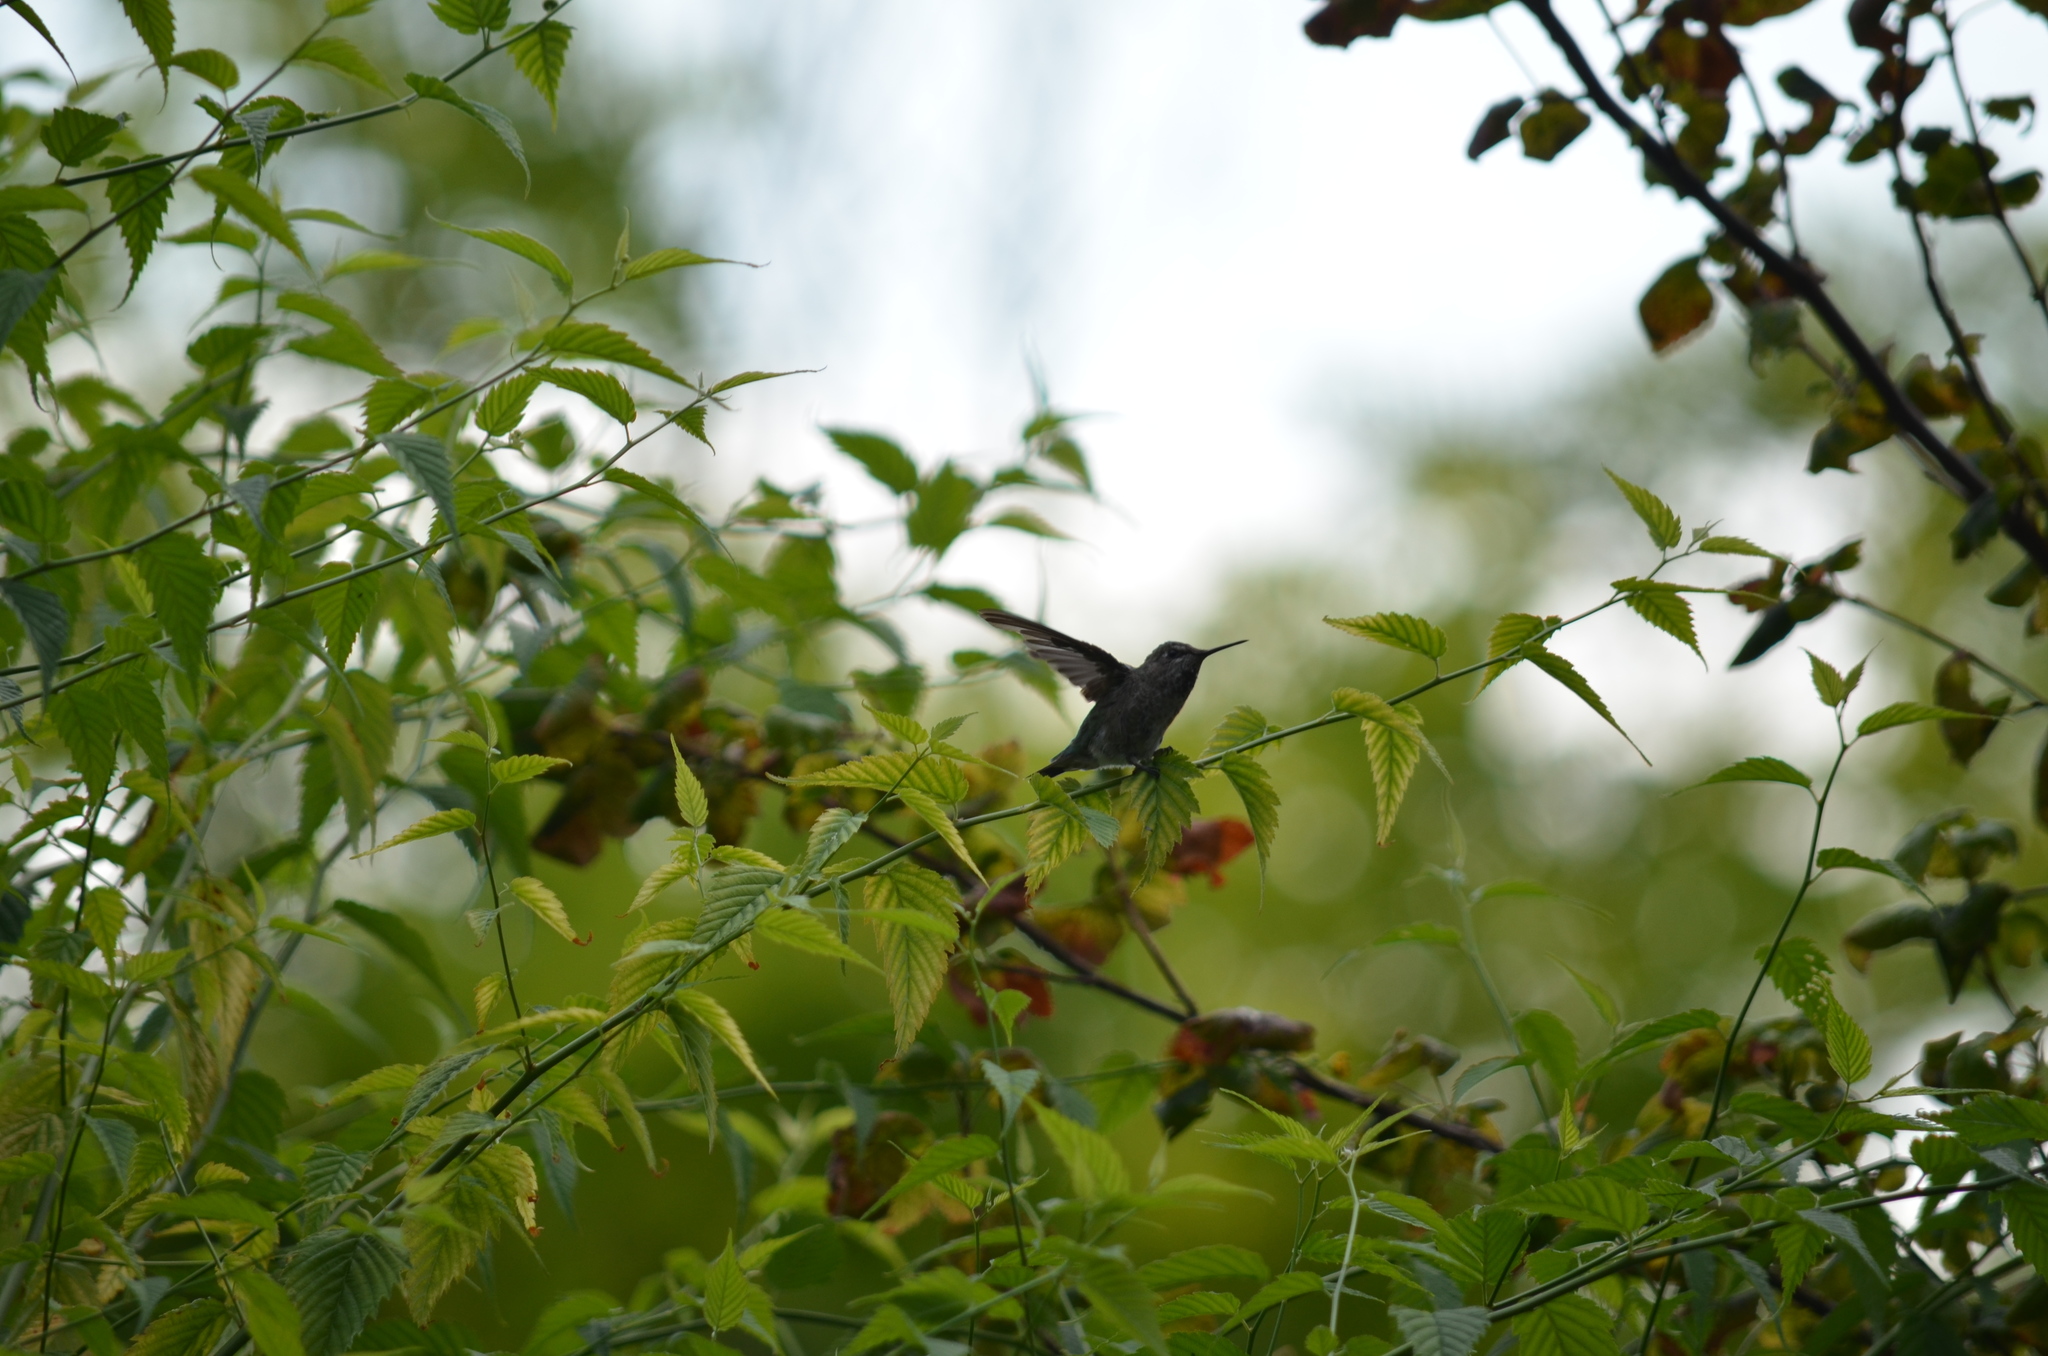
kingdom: Animalia
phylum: Chordata
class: Aves
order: Apodiformes
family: Trochilidae
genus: Calypte
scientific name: Calypte anna
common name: Anna's hummingbird
